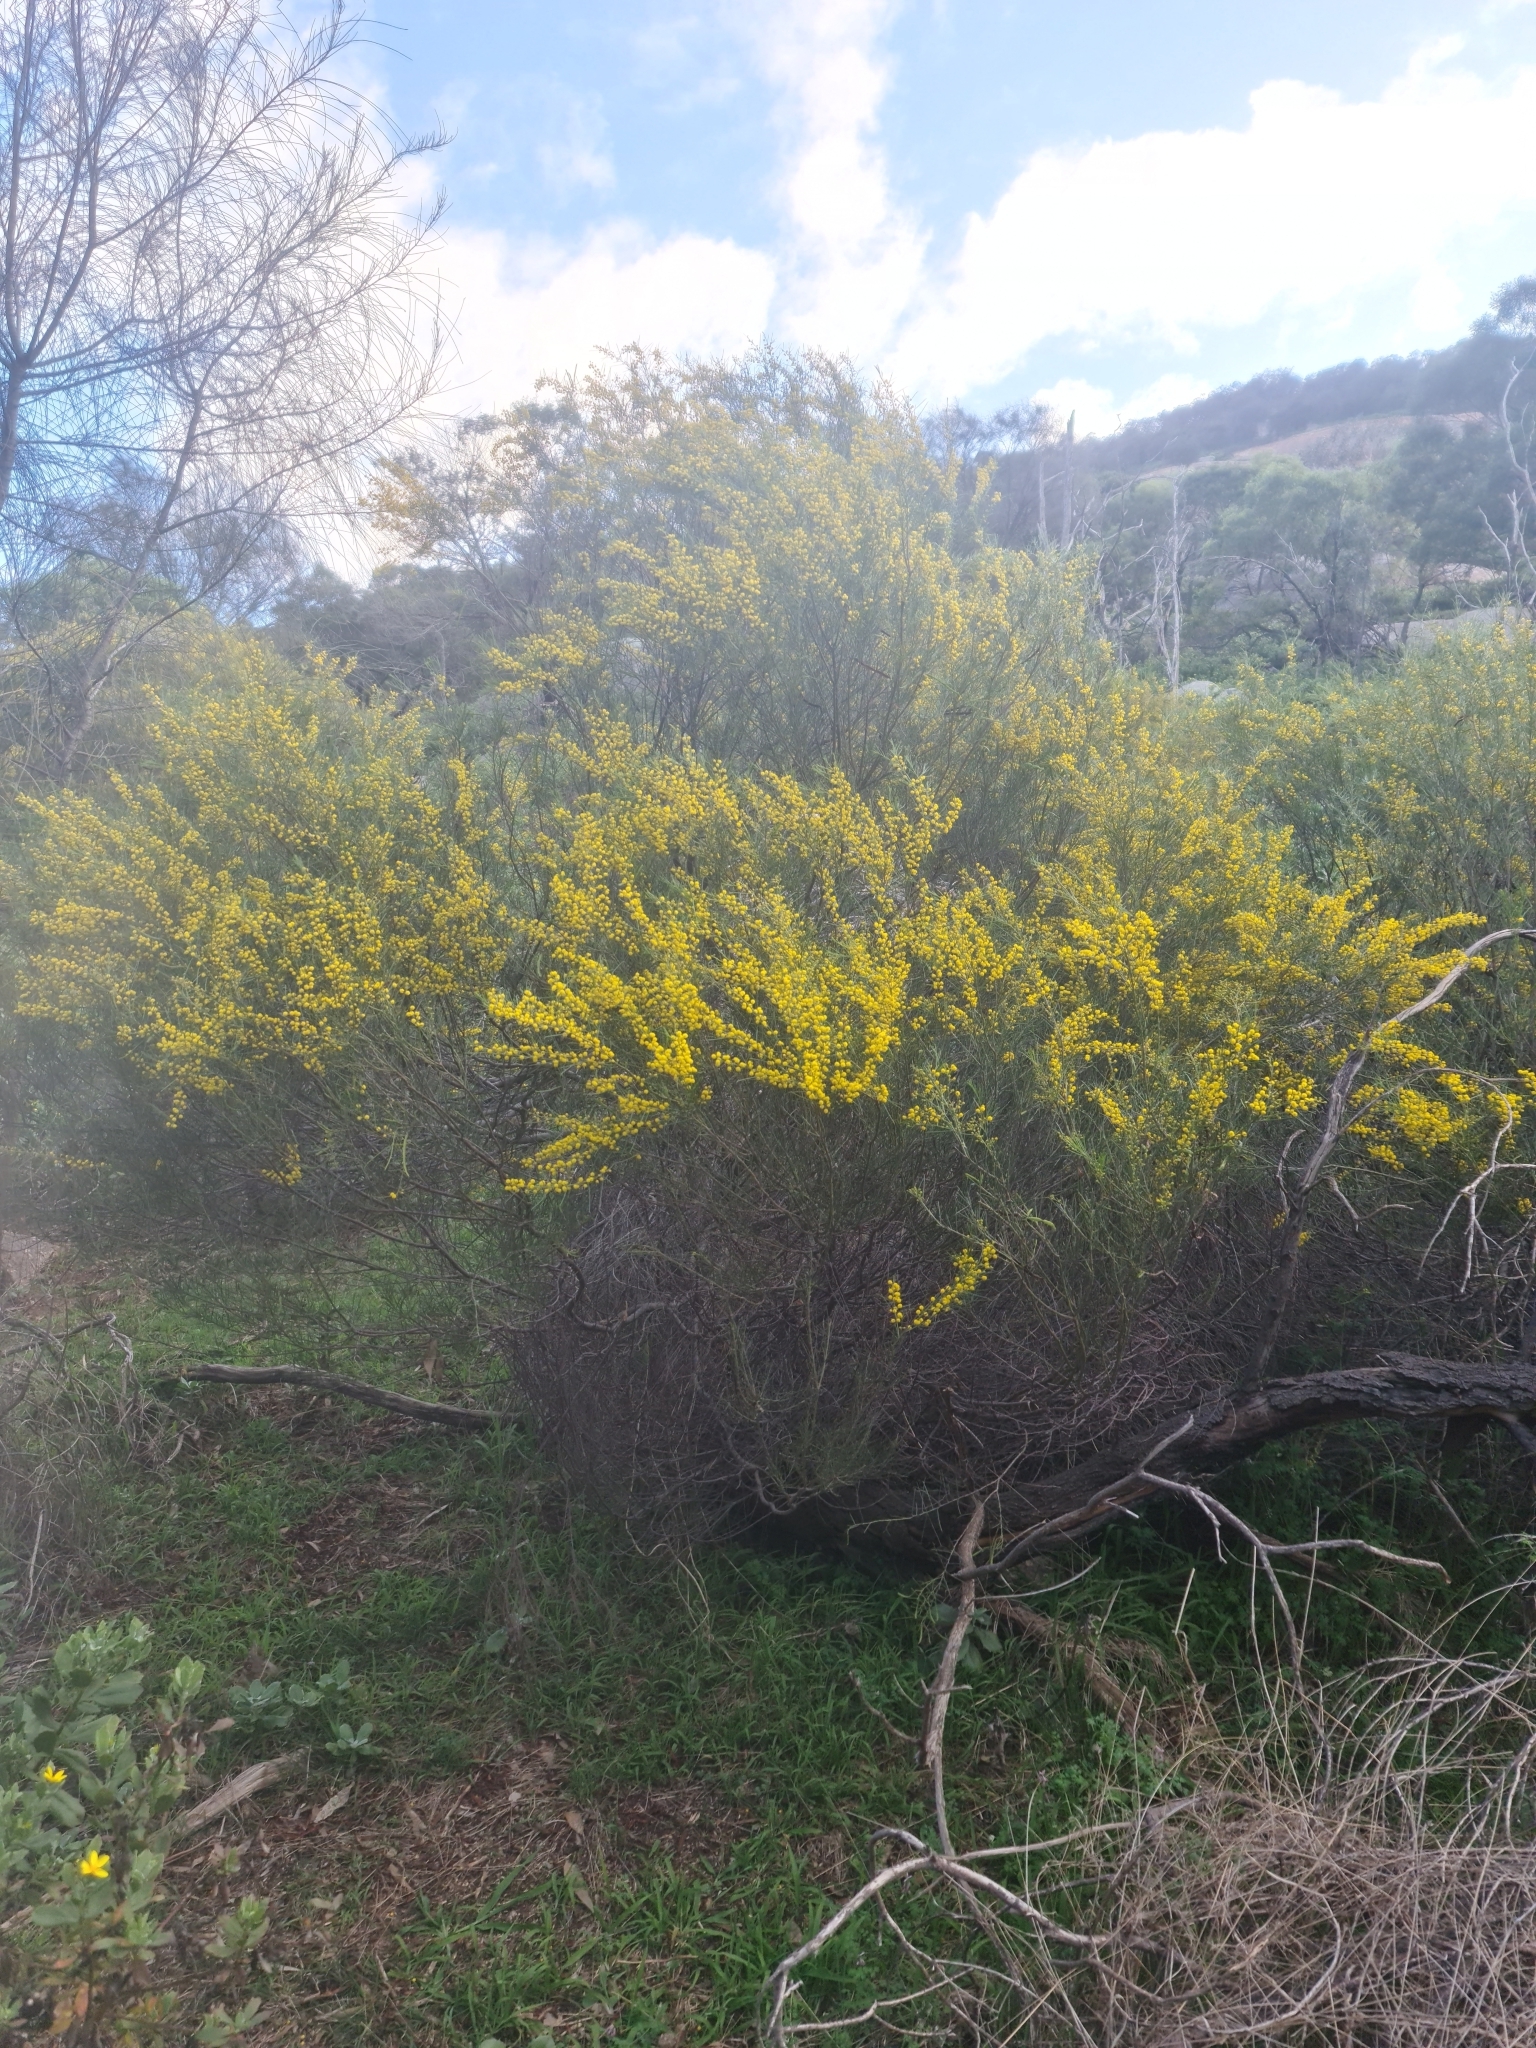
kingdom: Plantae
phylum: Tracheophyta
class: Magnoliopsida
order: Fabales
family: Fabaceae
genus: Acacia
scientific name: Acacia euthycarpa
